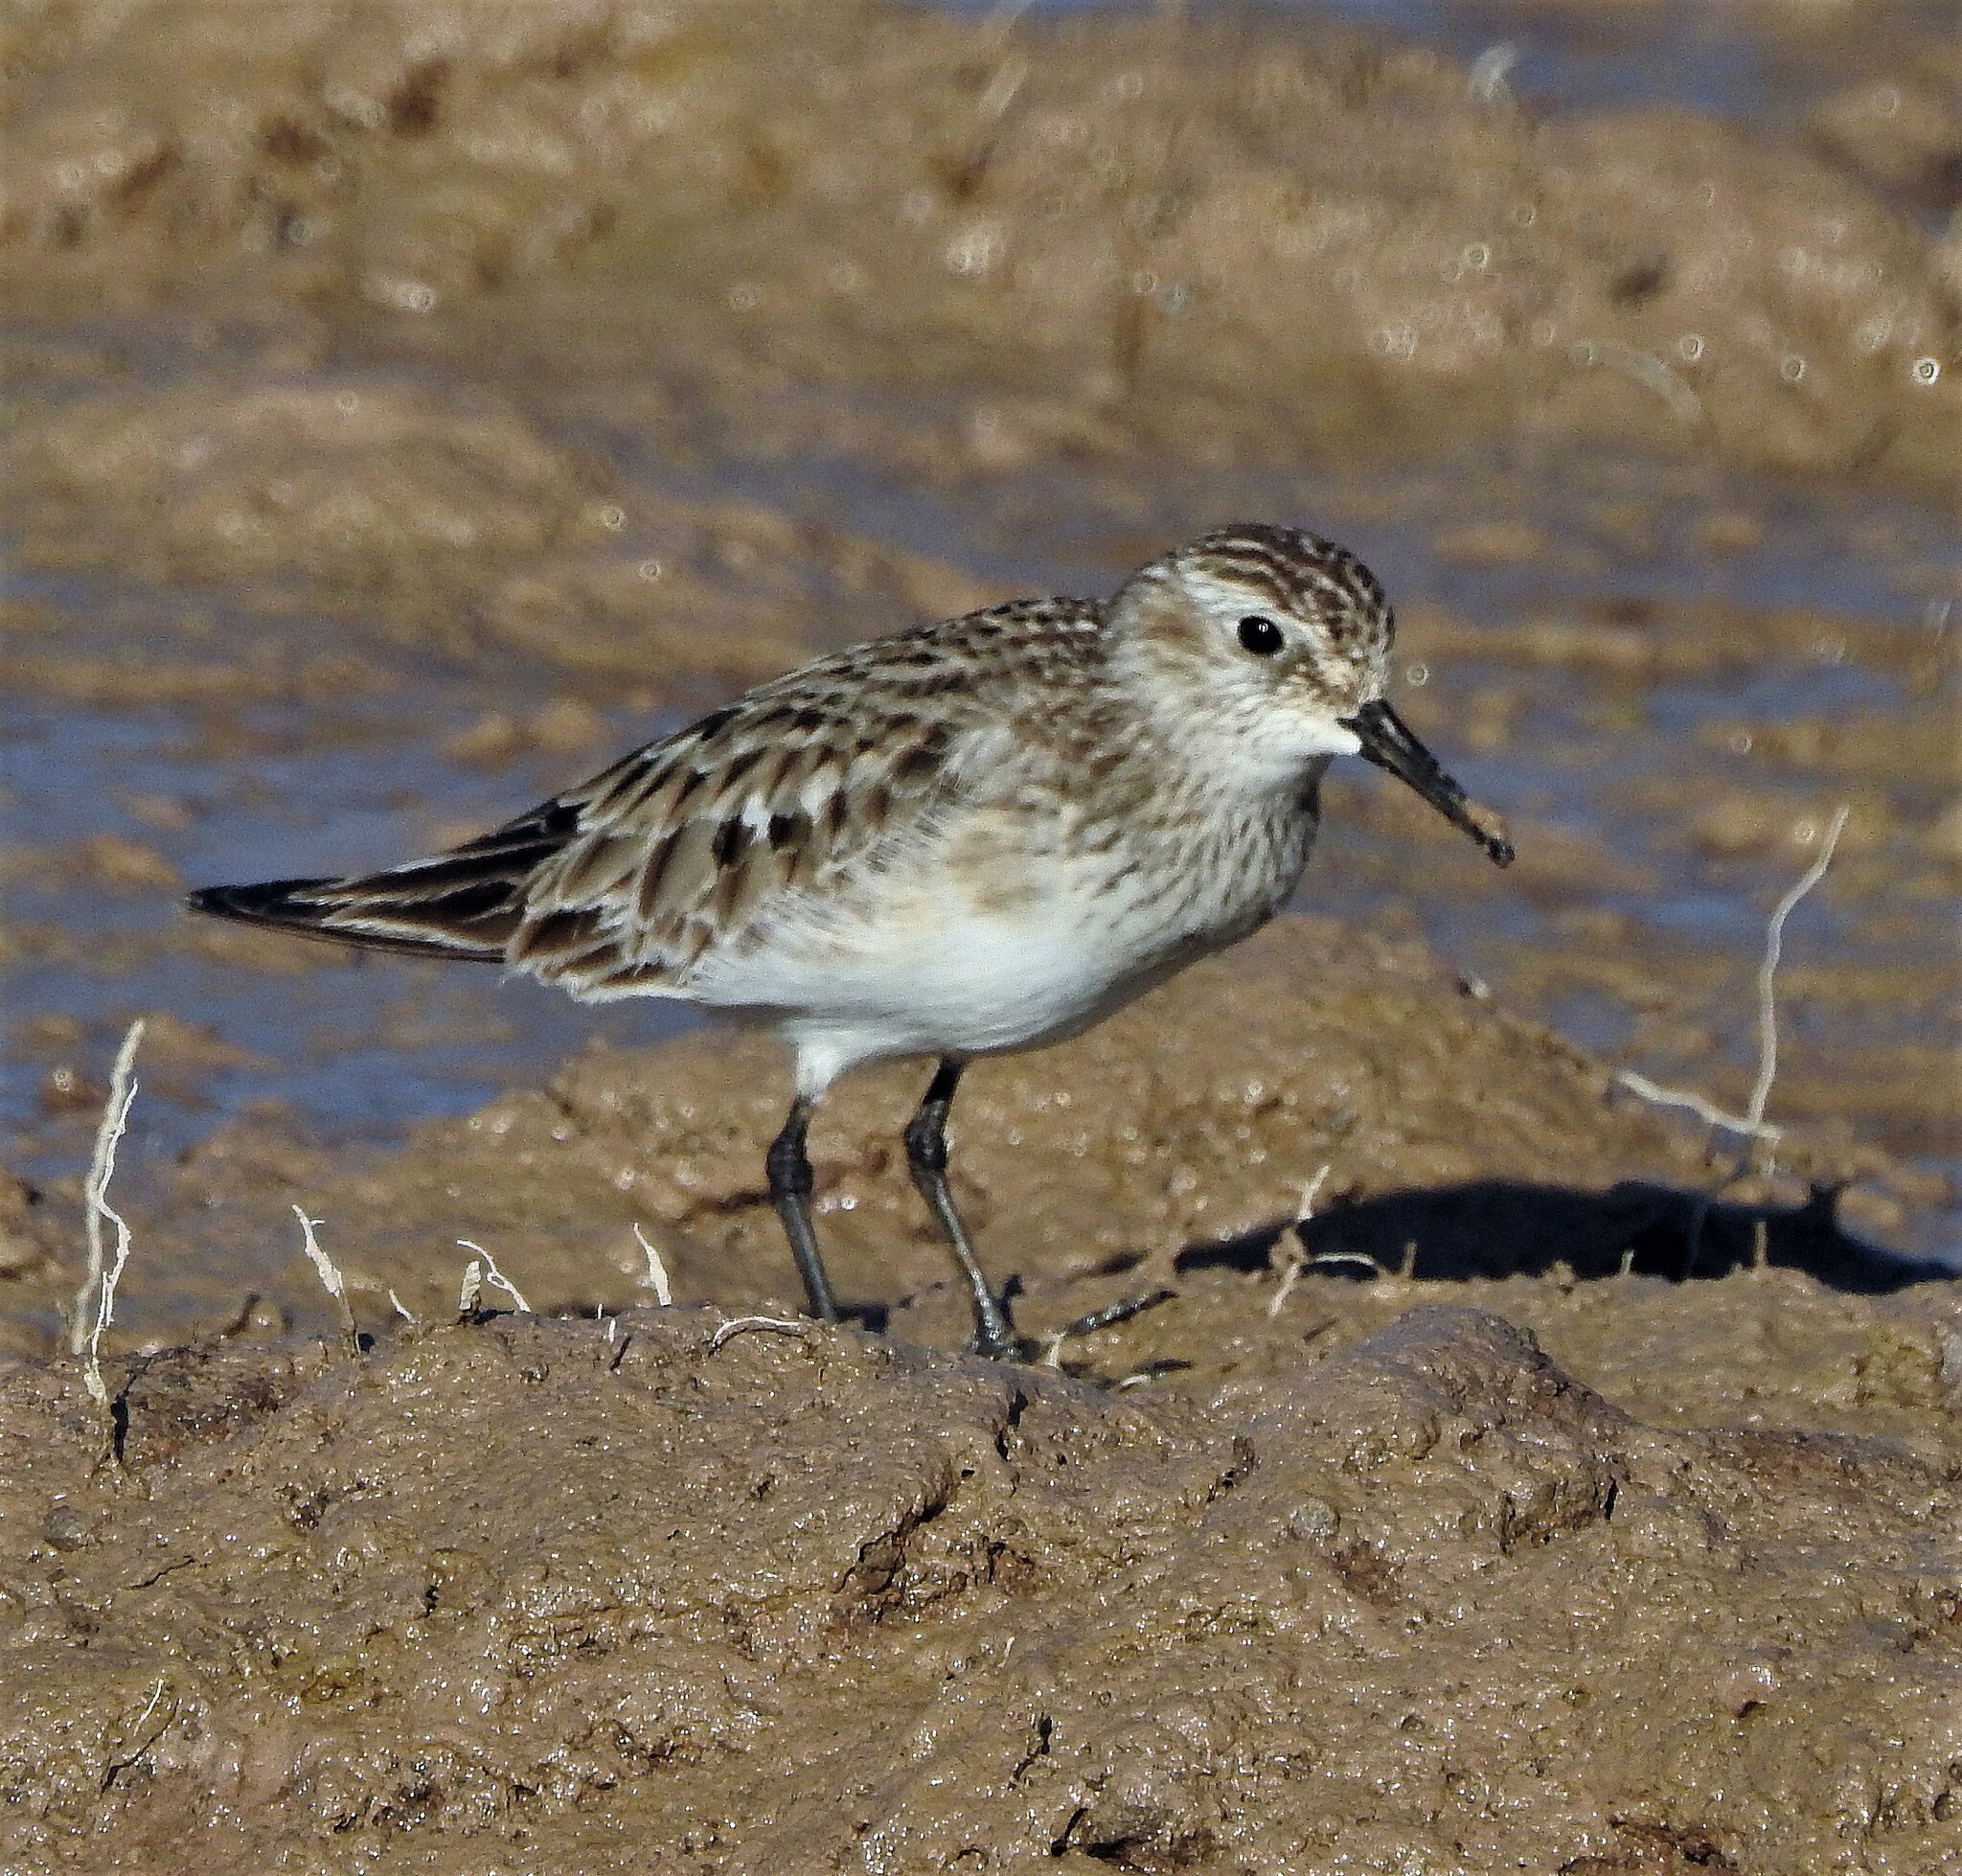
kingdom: Animalia
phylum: Chordata
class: Aves
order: Charadriiformes
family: Scolopacidae
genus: Calidris
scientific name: Calidris bairdii
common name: Baird's sandpiper
